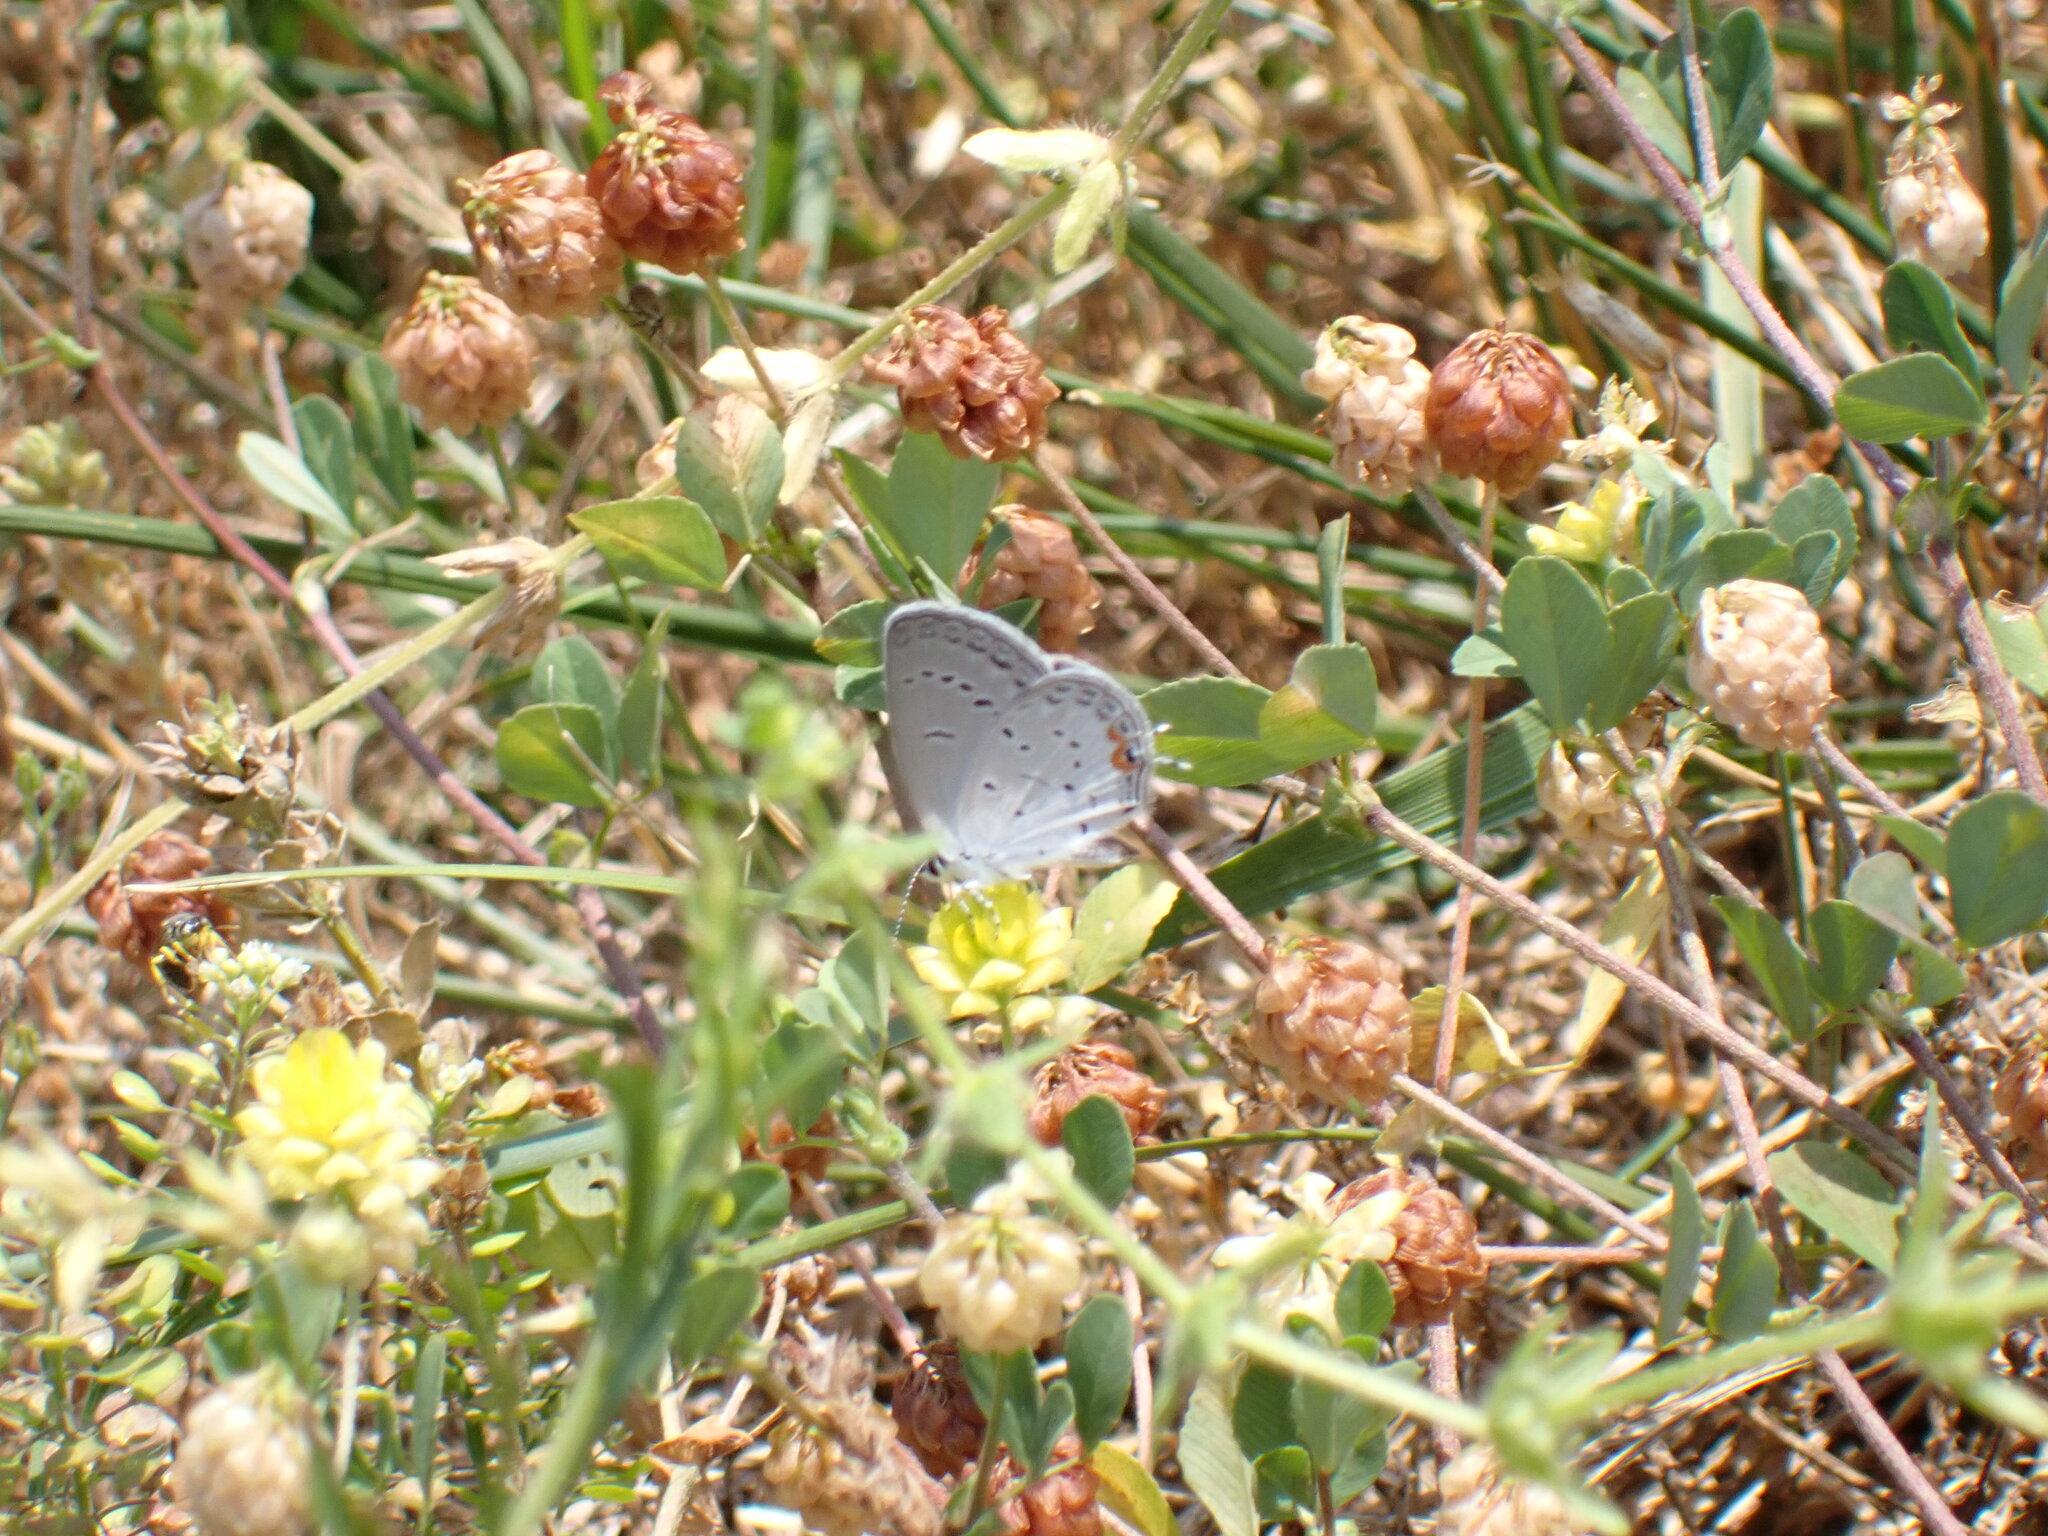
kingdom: Animalia
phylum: Arthropoda
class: Insecta
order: Lepidoptera
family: Lycaenidae
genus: Elkalyce
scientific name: Elkalyce comyntas
